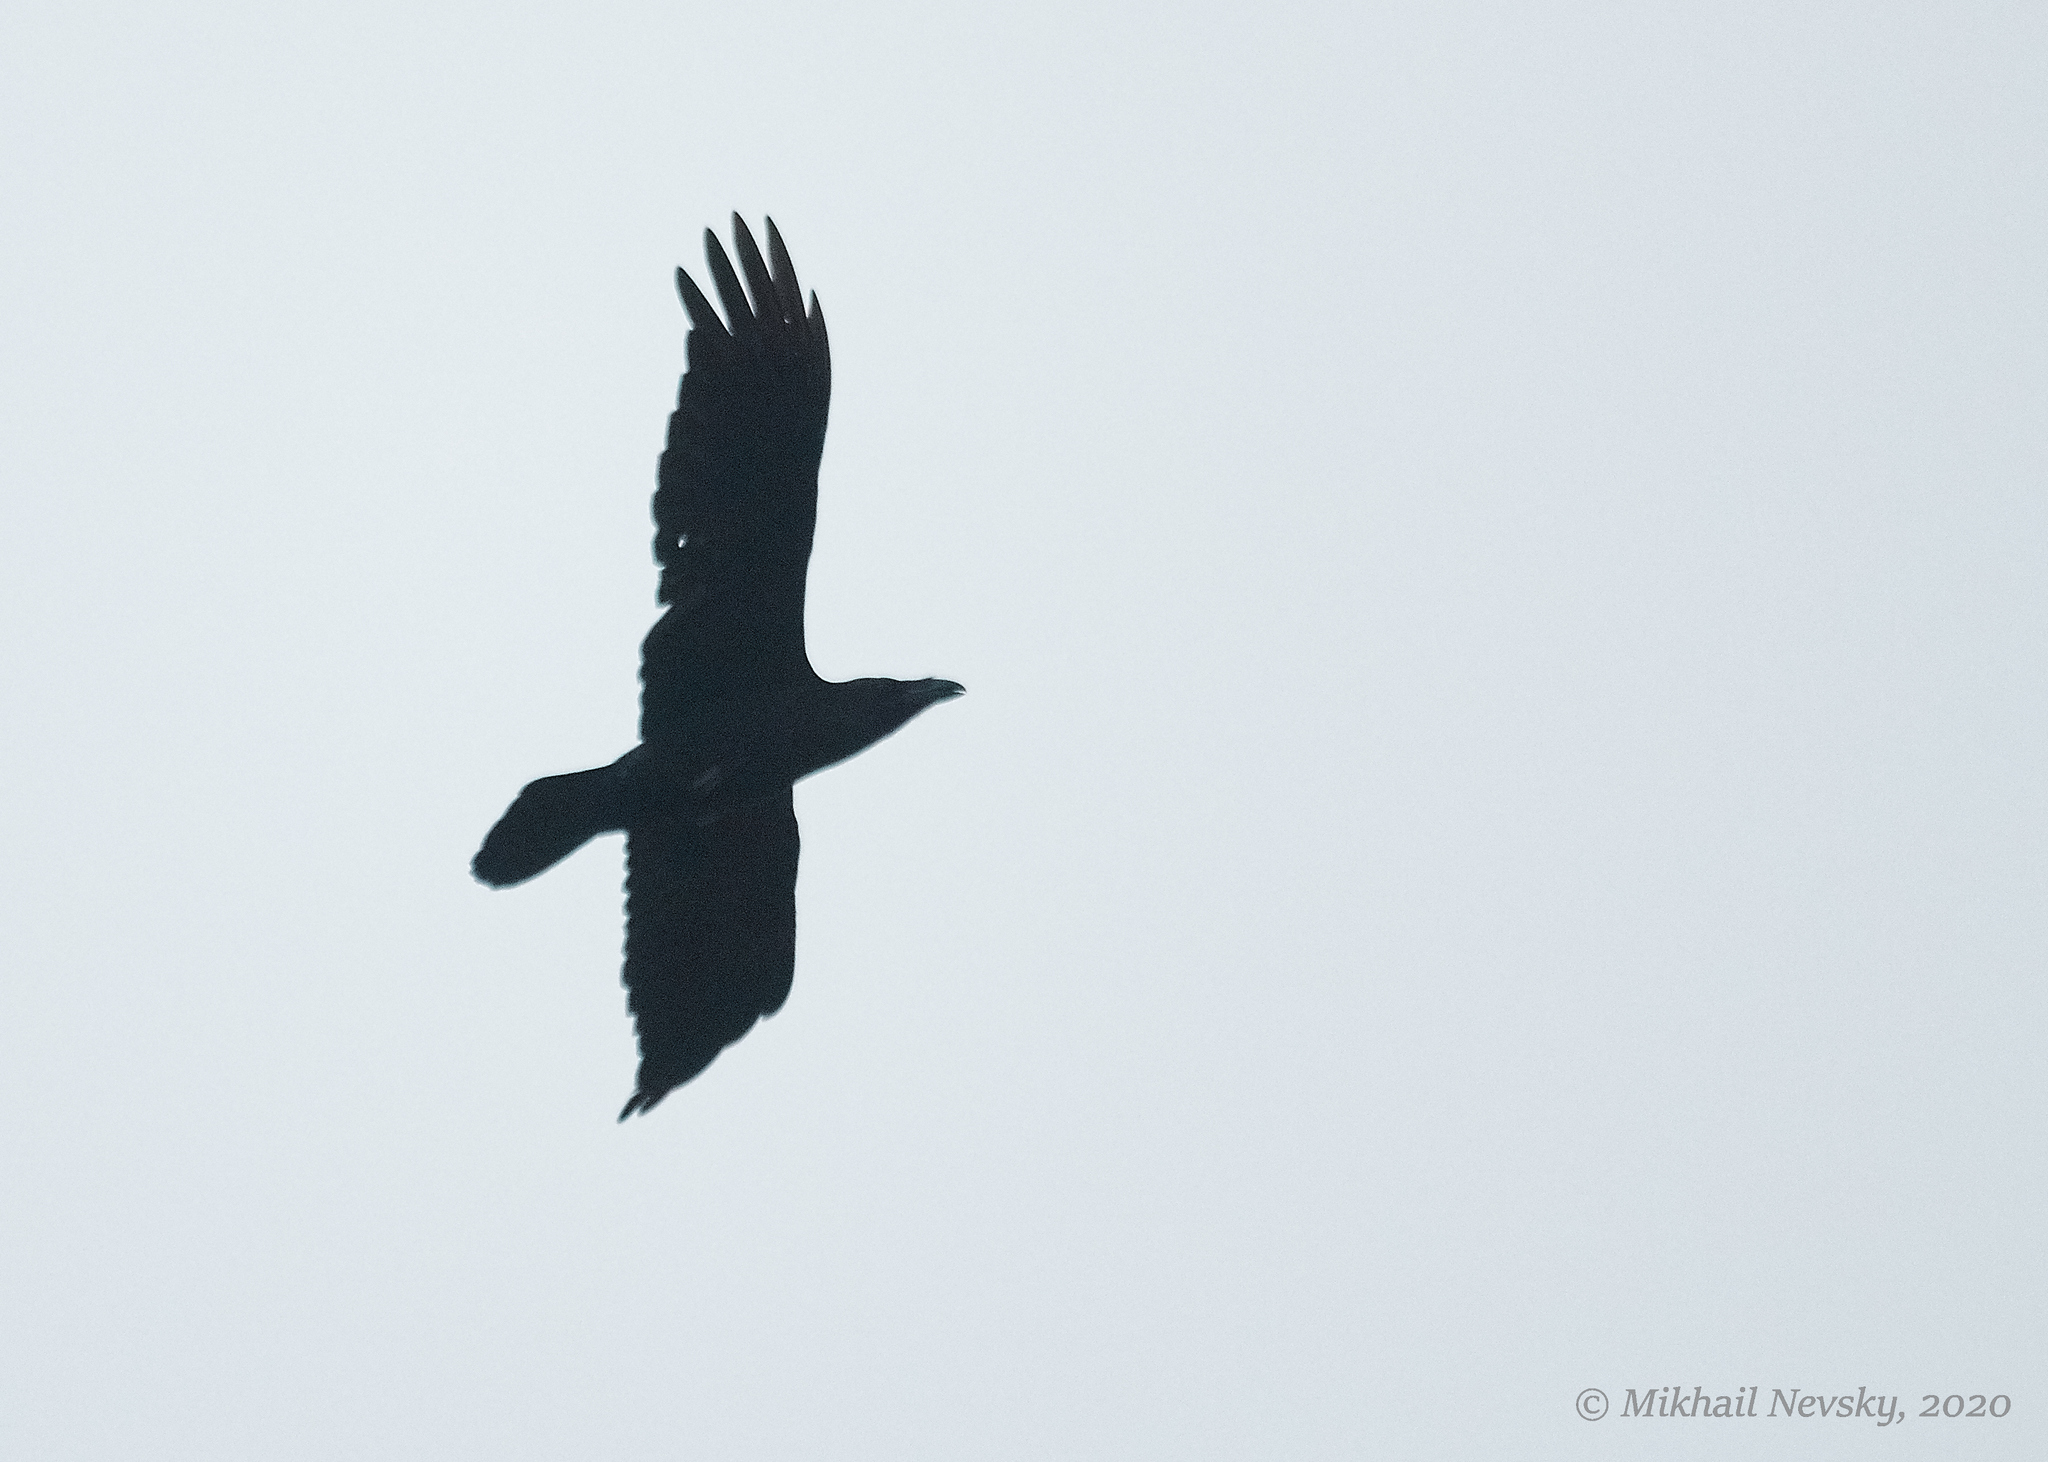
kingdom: Animalia
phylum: Chordata
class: Aves
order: Passeriformes
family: Corvidae
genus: Corvus
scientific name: Corvus corax
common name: Common raven
